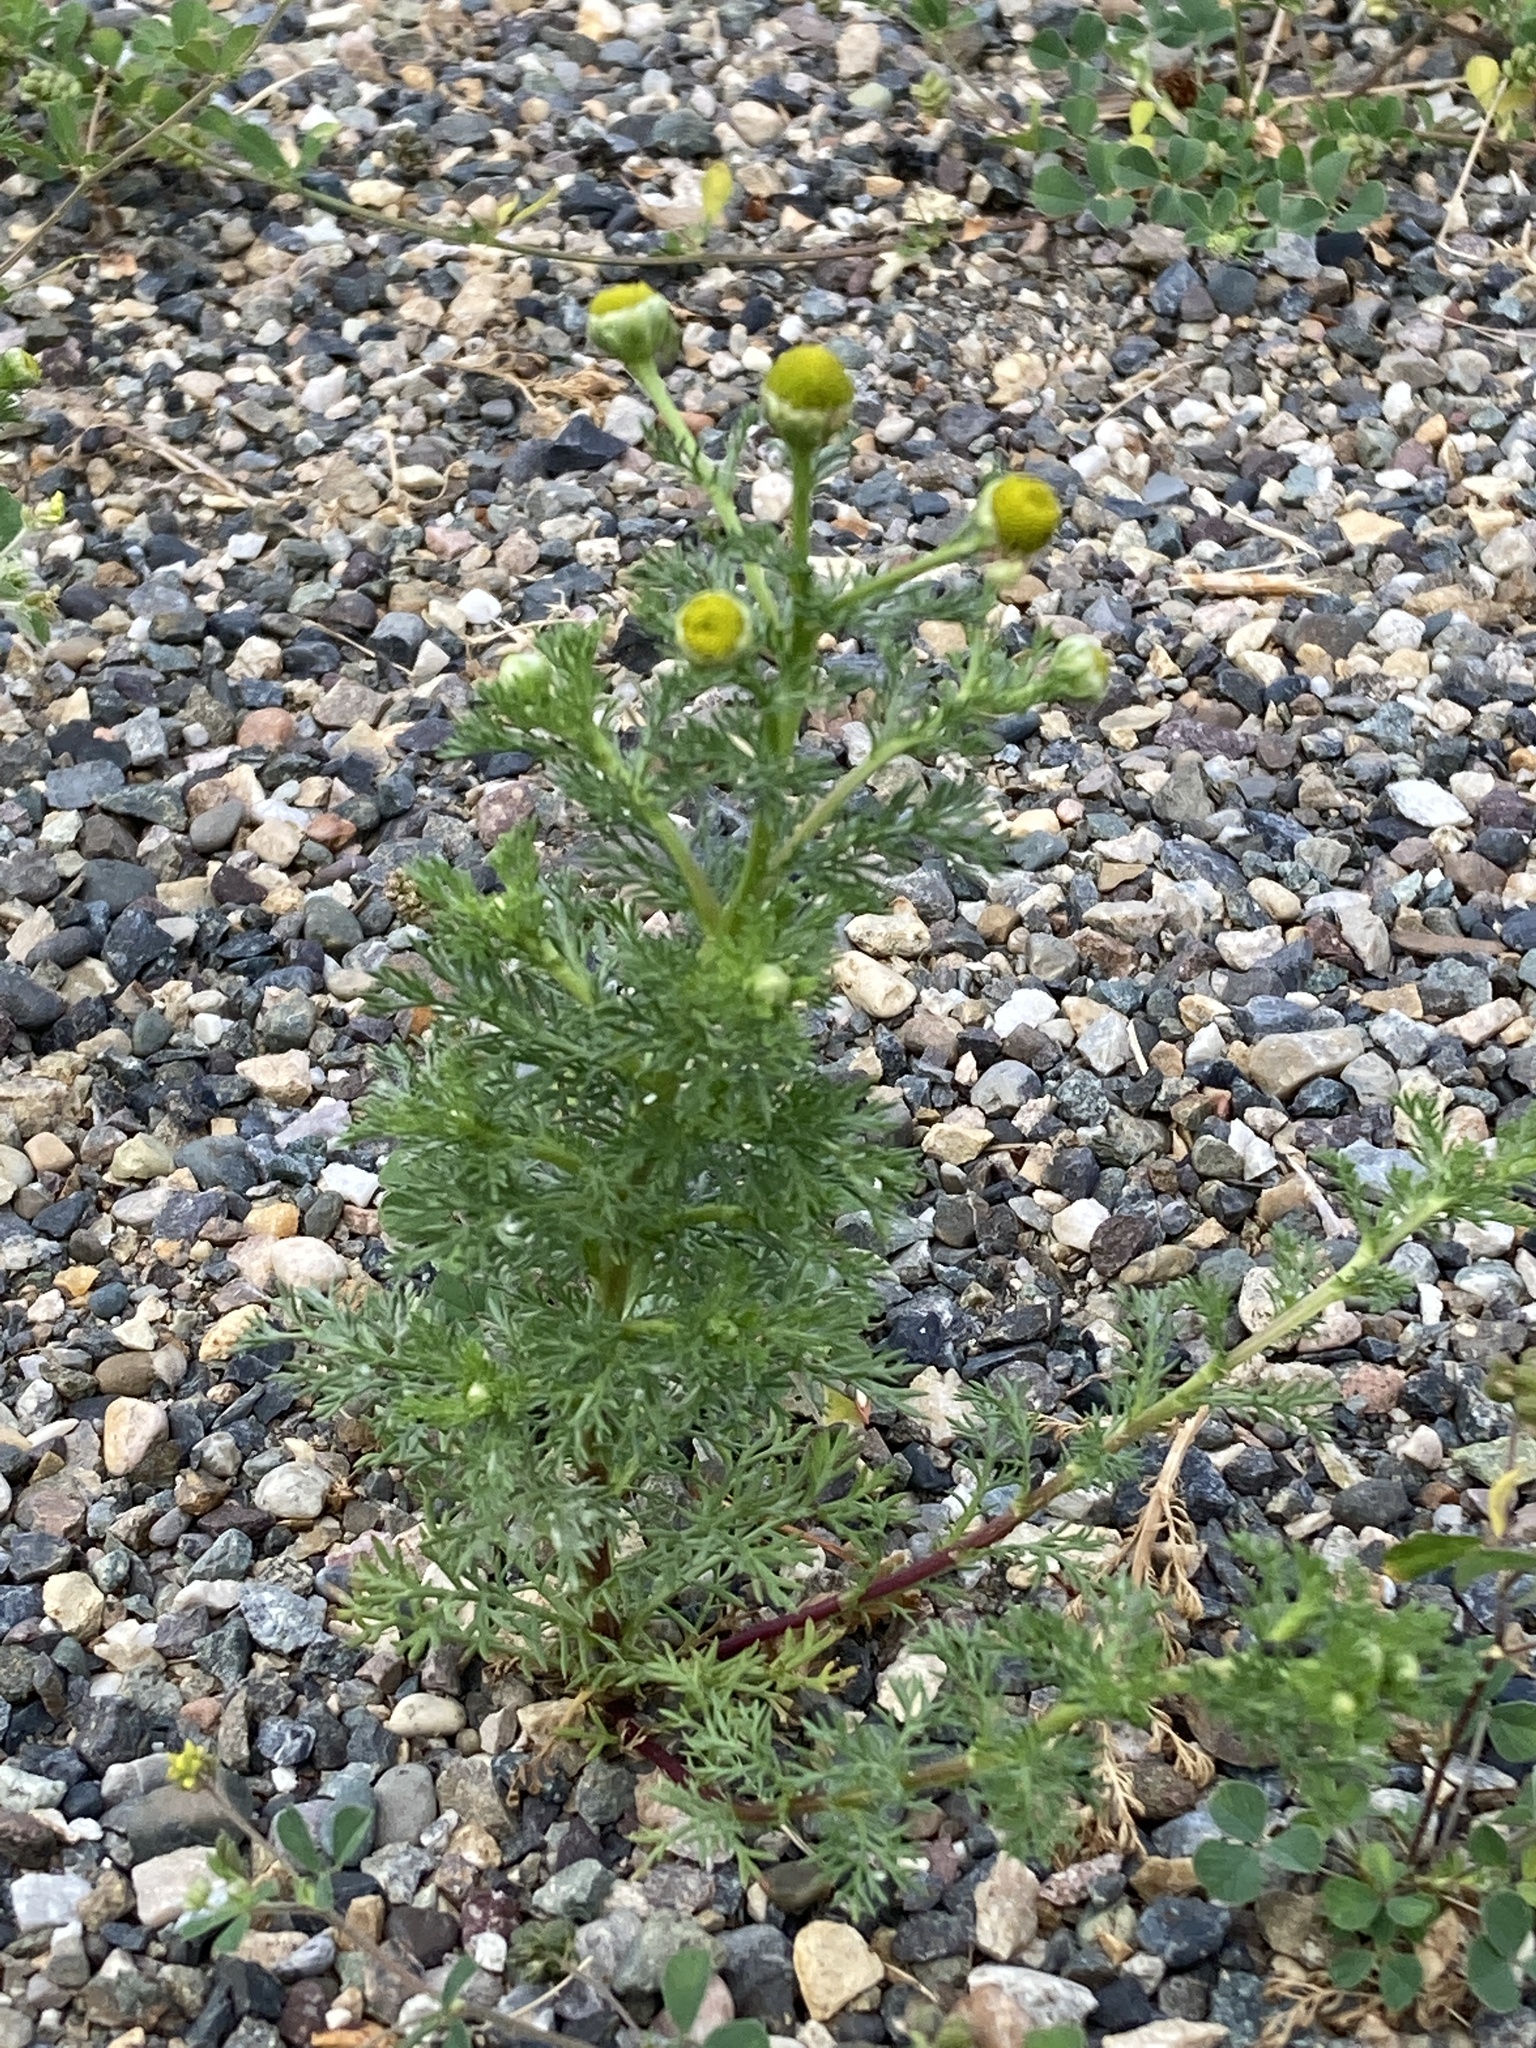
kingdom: Plantae
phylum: Tracheophyta
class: Magnoliopsida
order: Asterales
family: Asteraceae
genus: Matricaria
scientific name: Matricaria discoidea
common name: Disc mayweed
